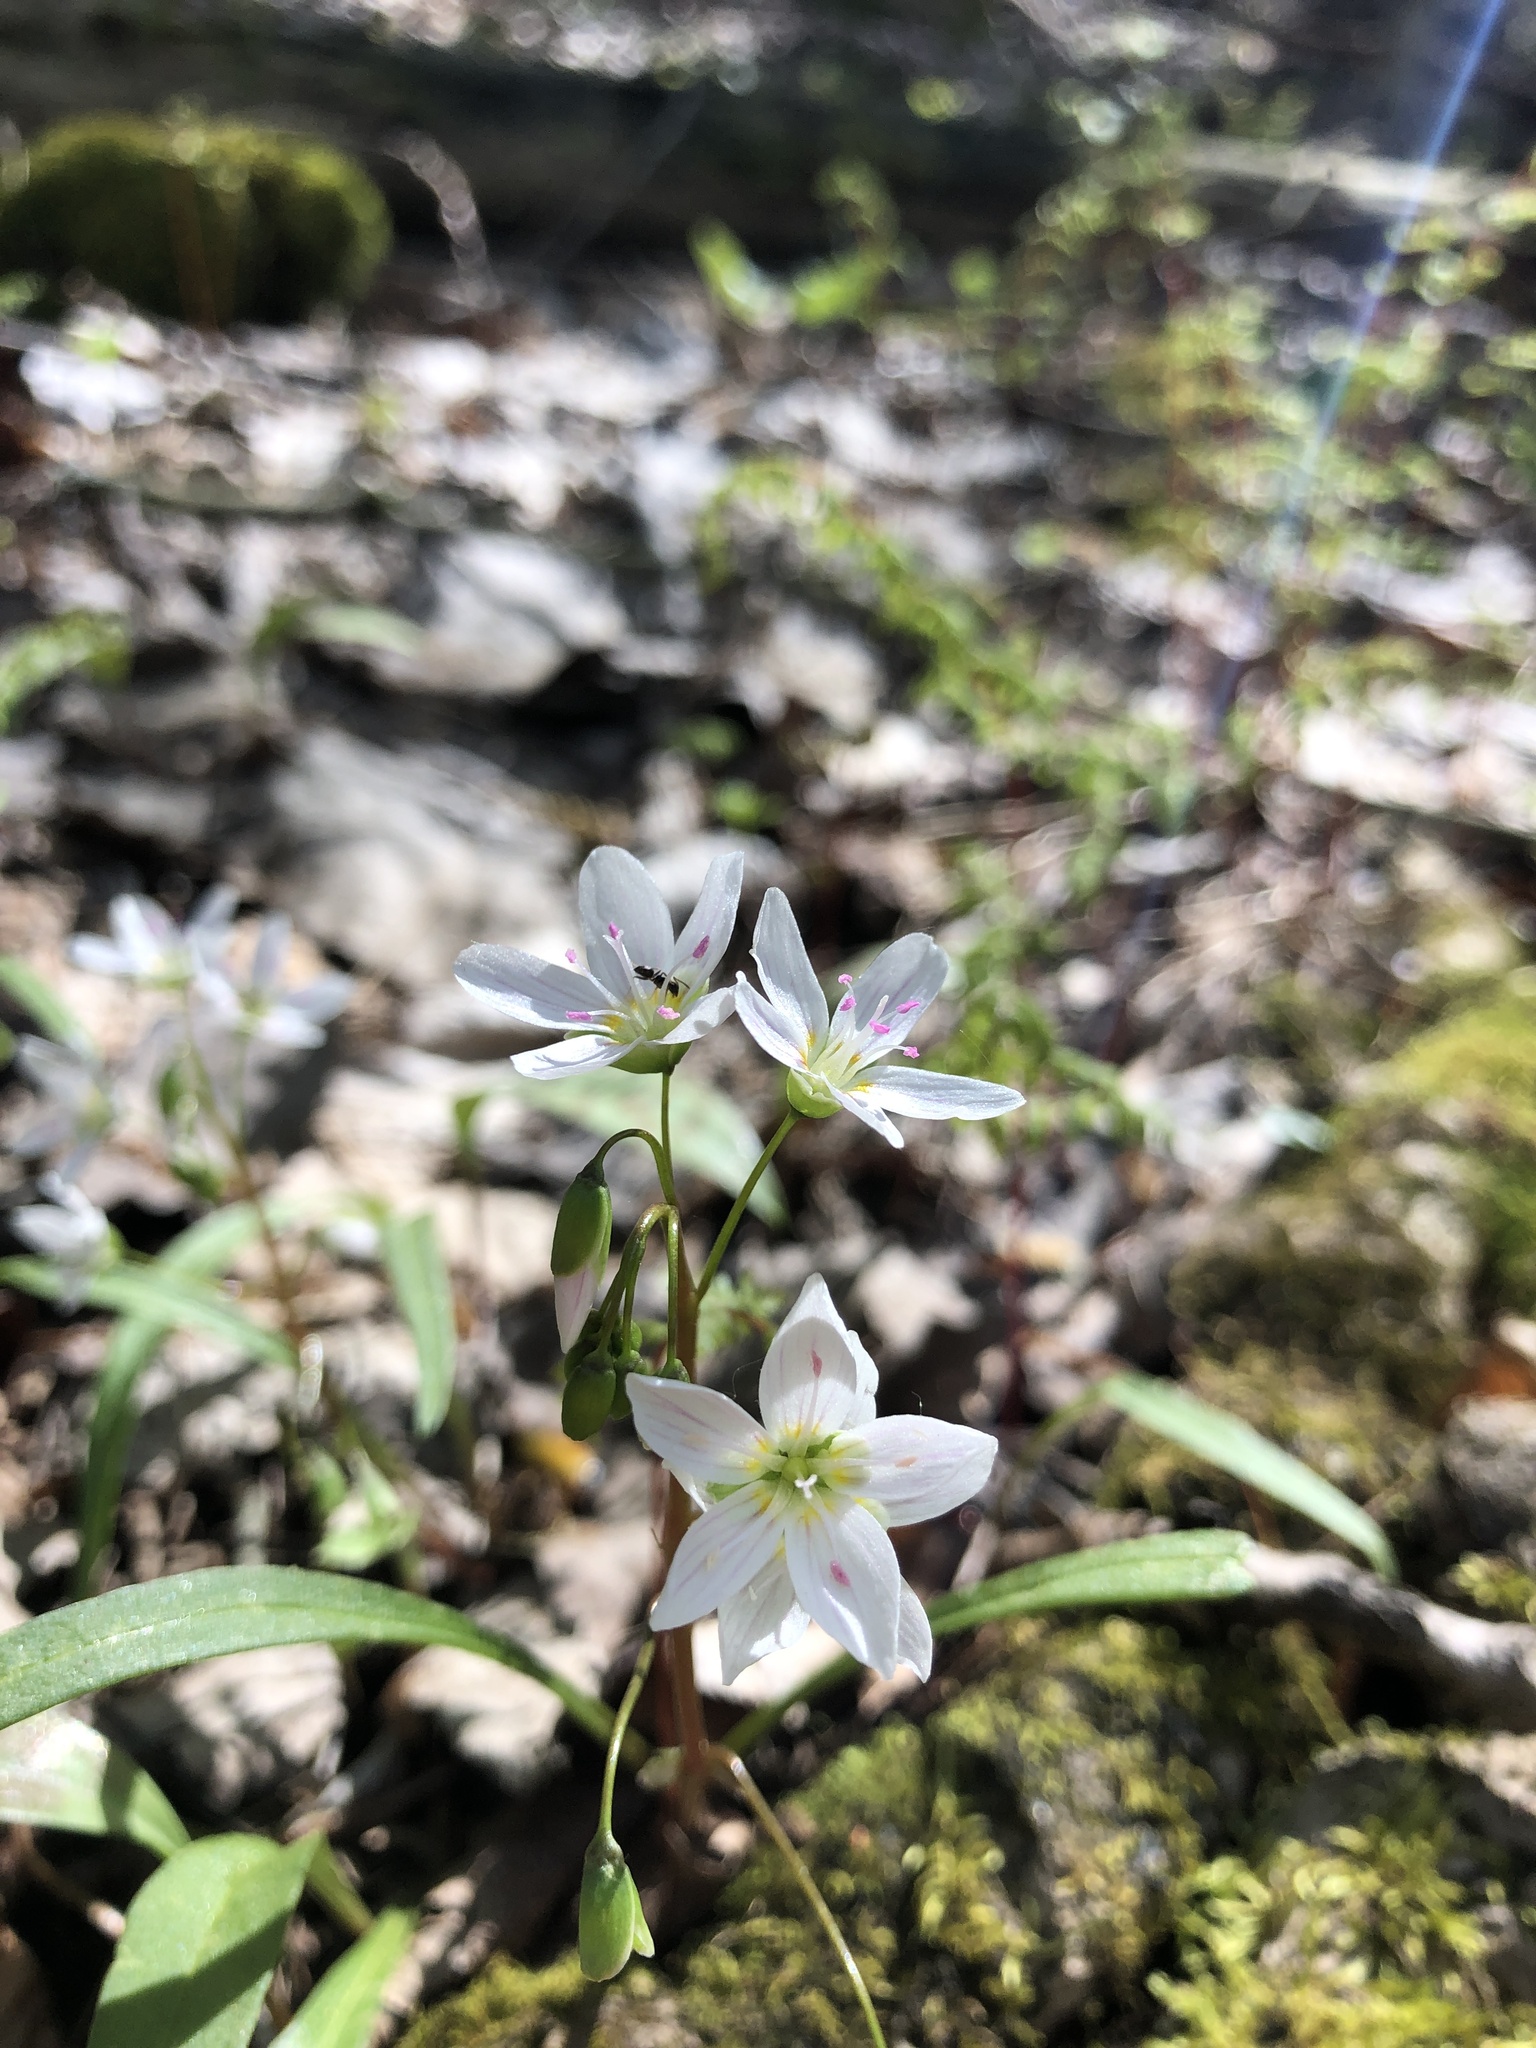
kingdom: Plantae
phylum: Tracheophyta
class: Magnoliopsida
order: Caryophyllales
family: Montiaceae
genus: Claytonia
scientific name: Claytonia virginica
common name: Virginia springbeauty
